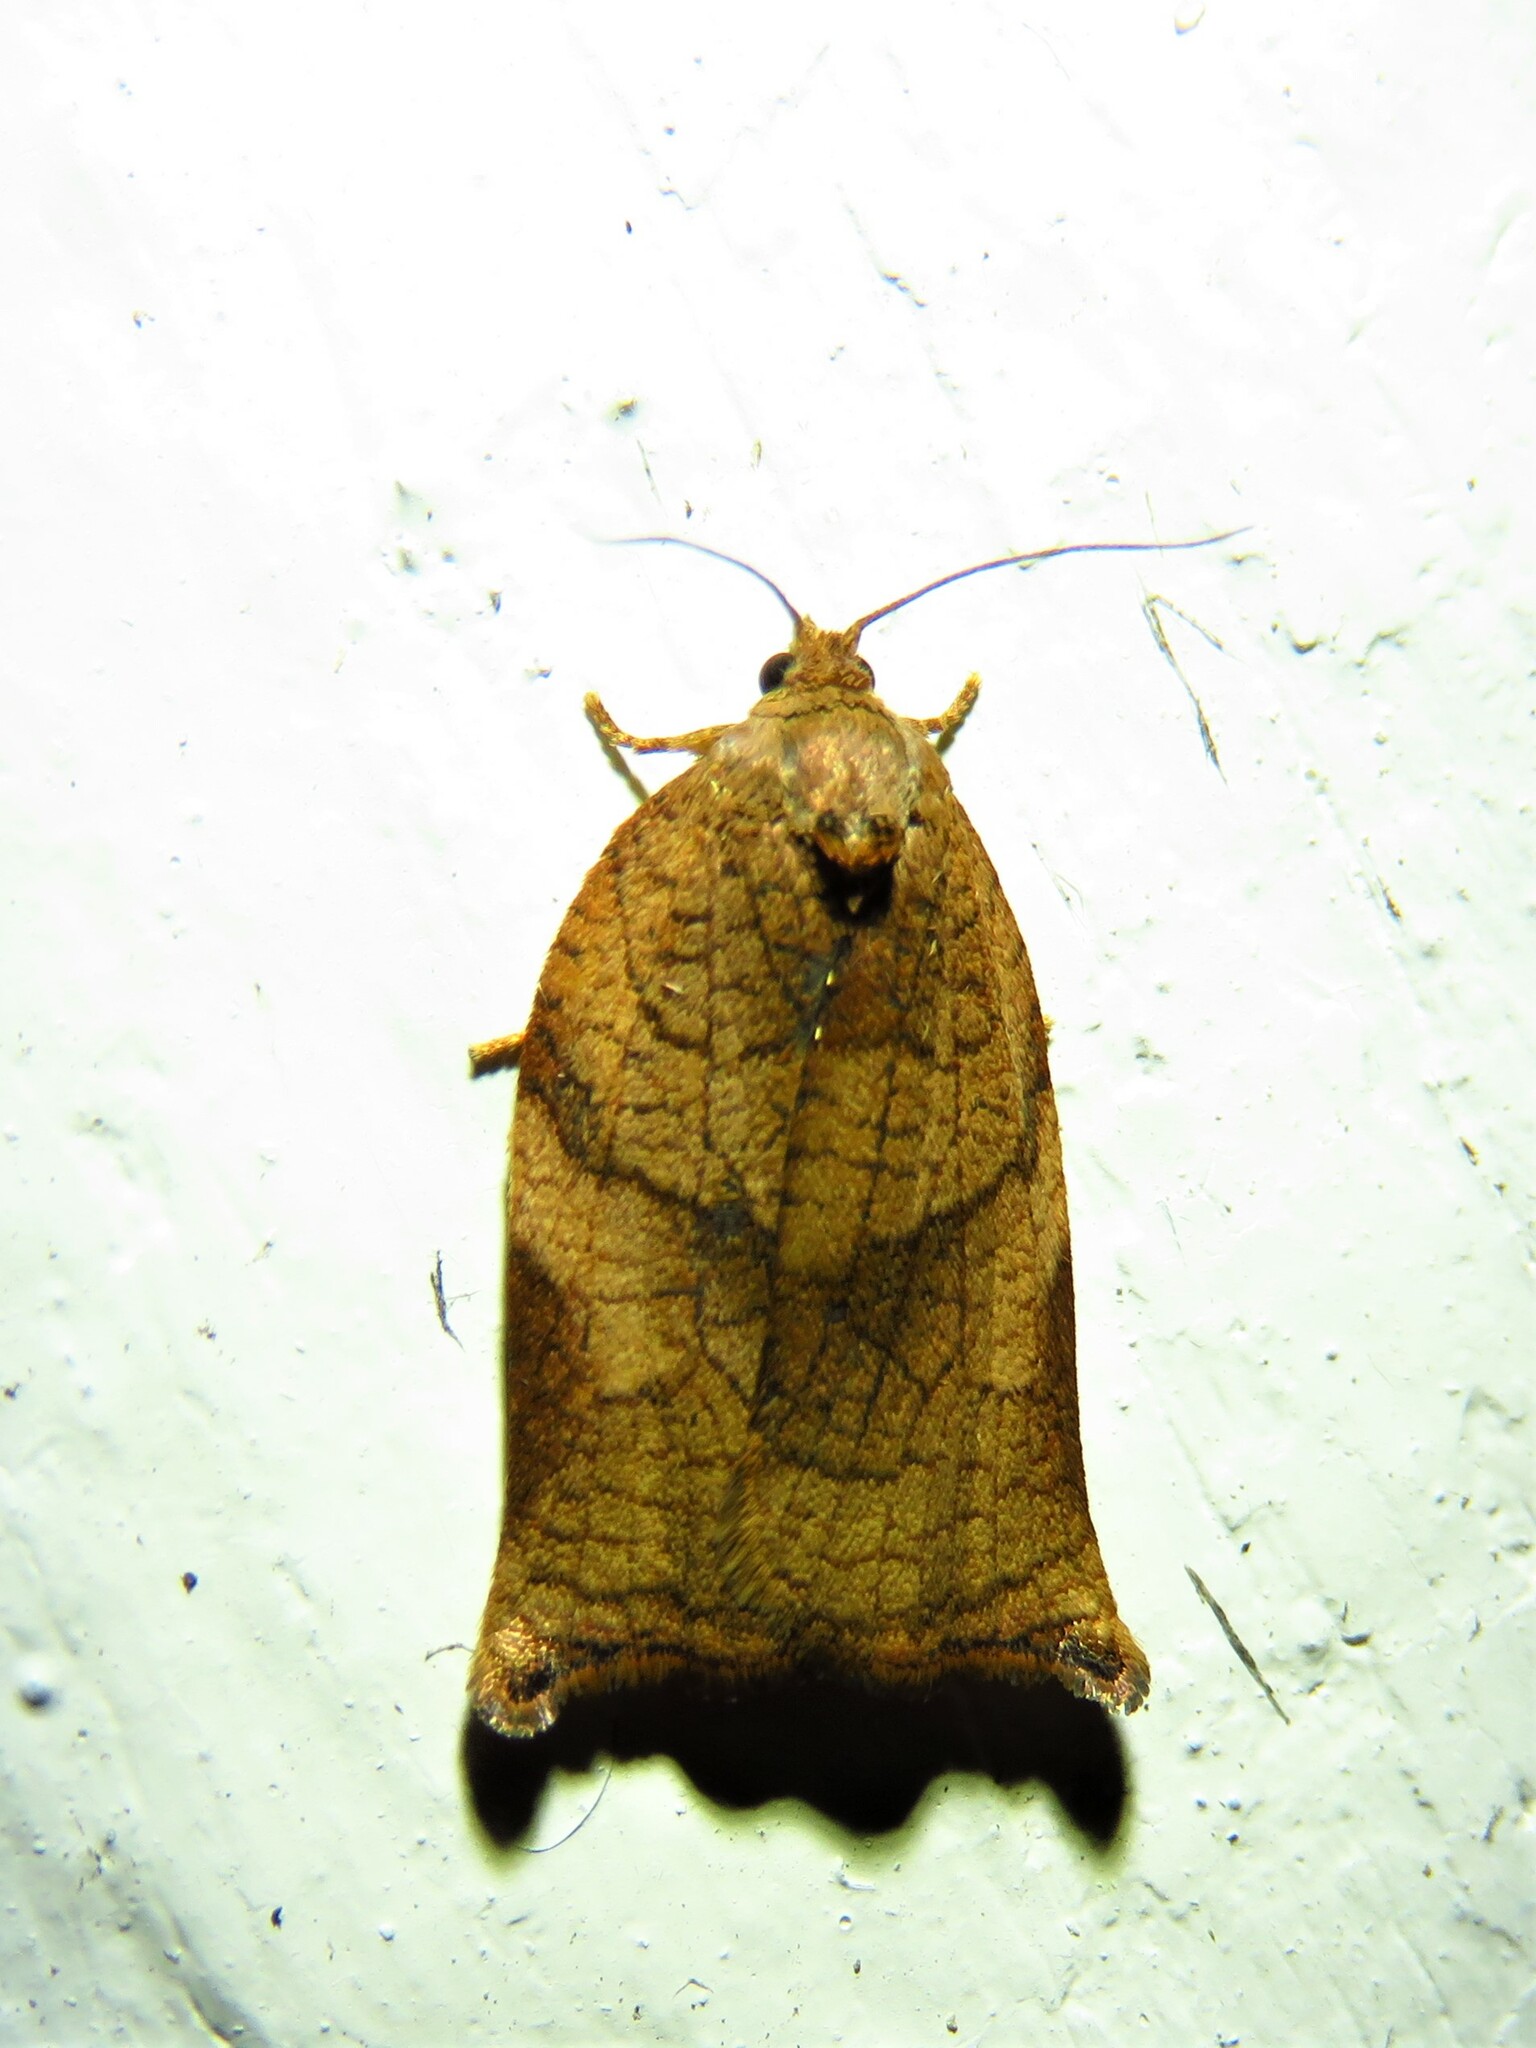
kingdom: Animalia
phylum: Arthropoda
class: Insecta
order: Lepidoptera
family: Tortricidae
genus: Archips
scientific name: Archips podana
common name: Large fruit-tree tortrix
